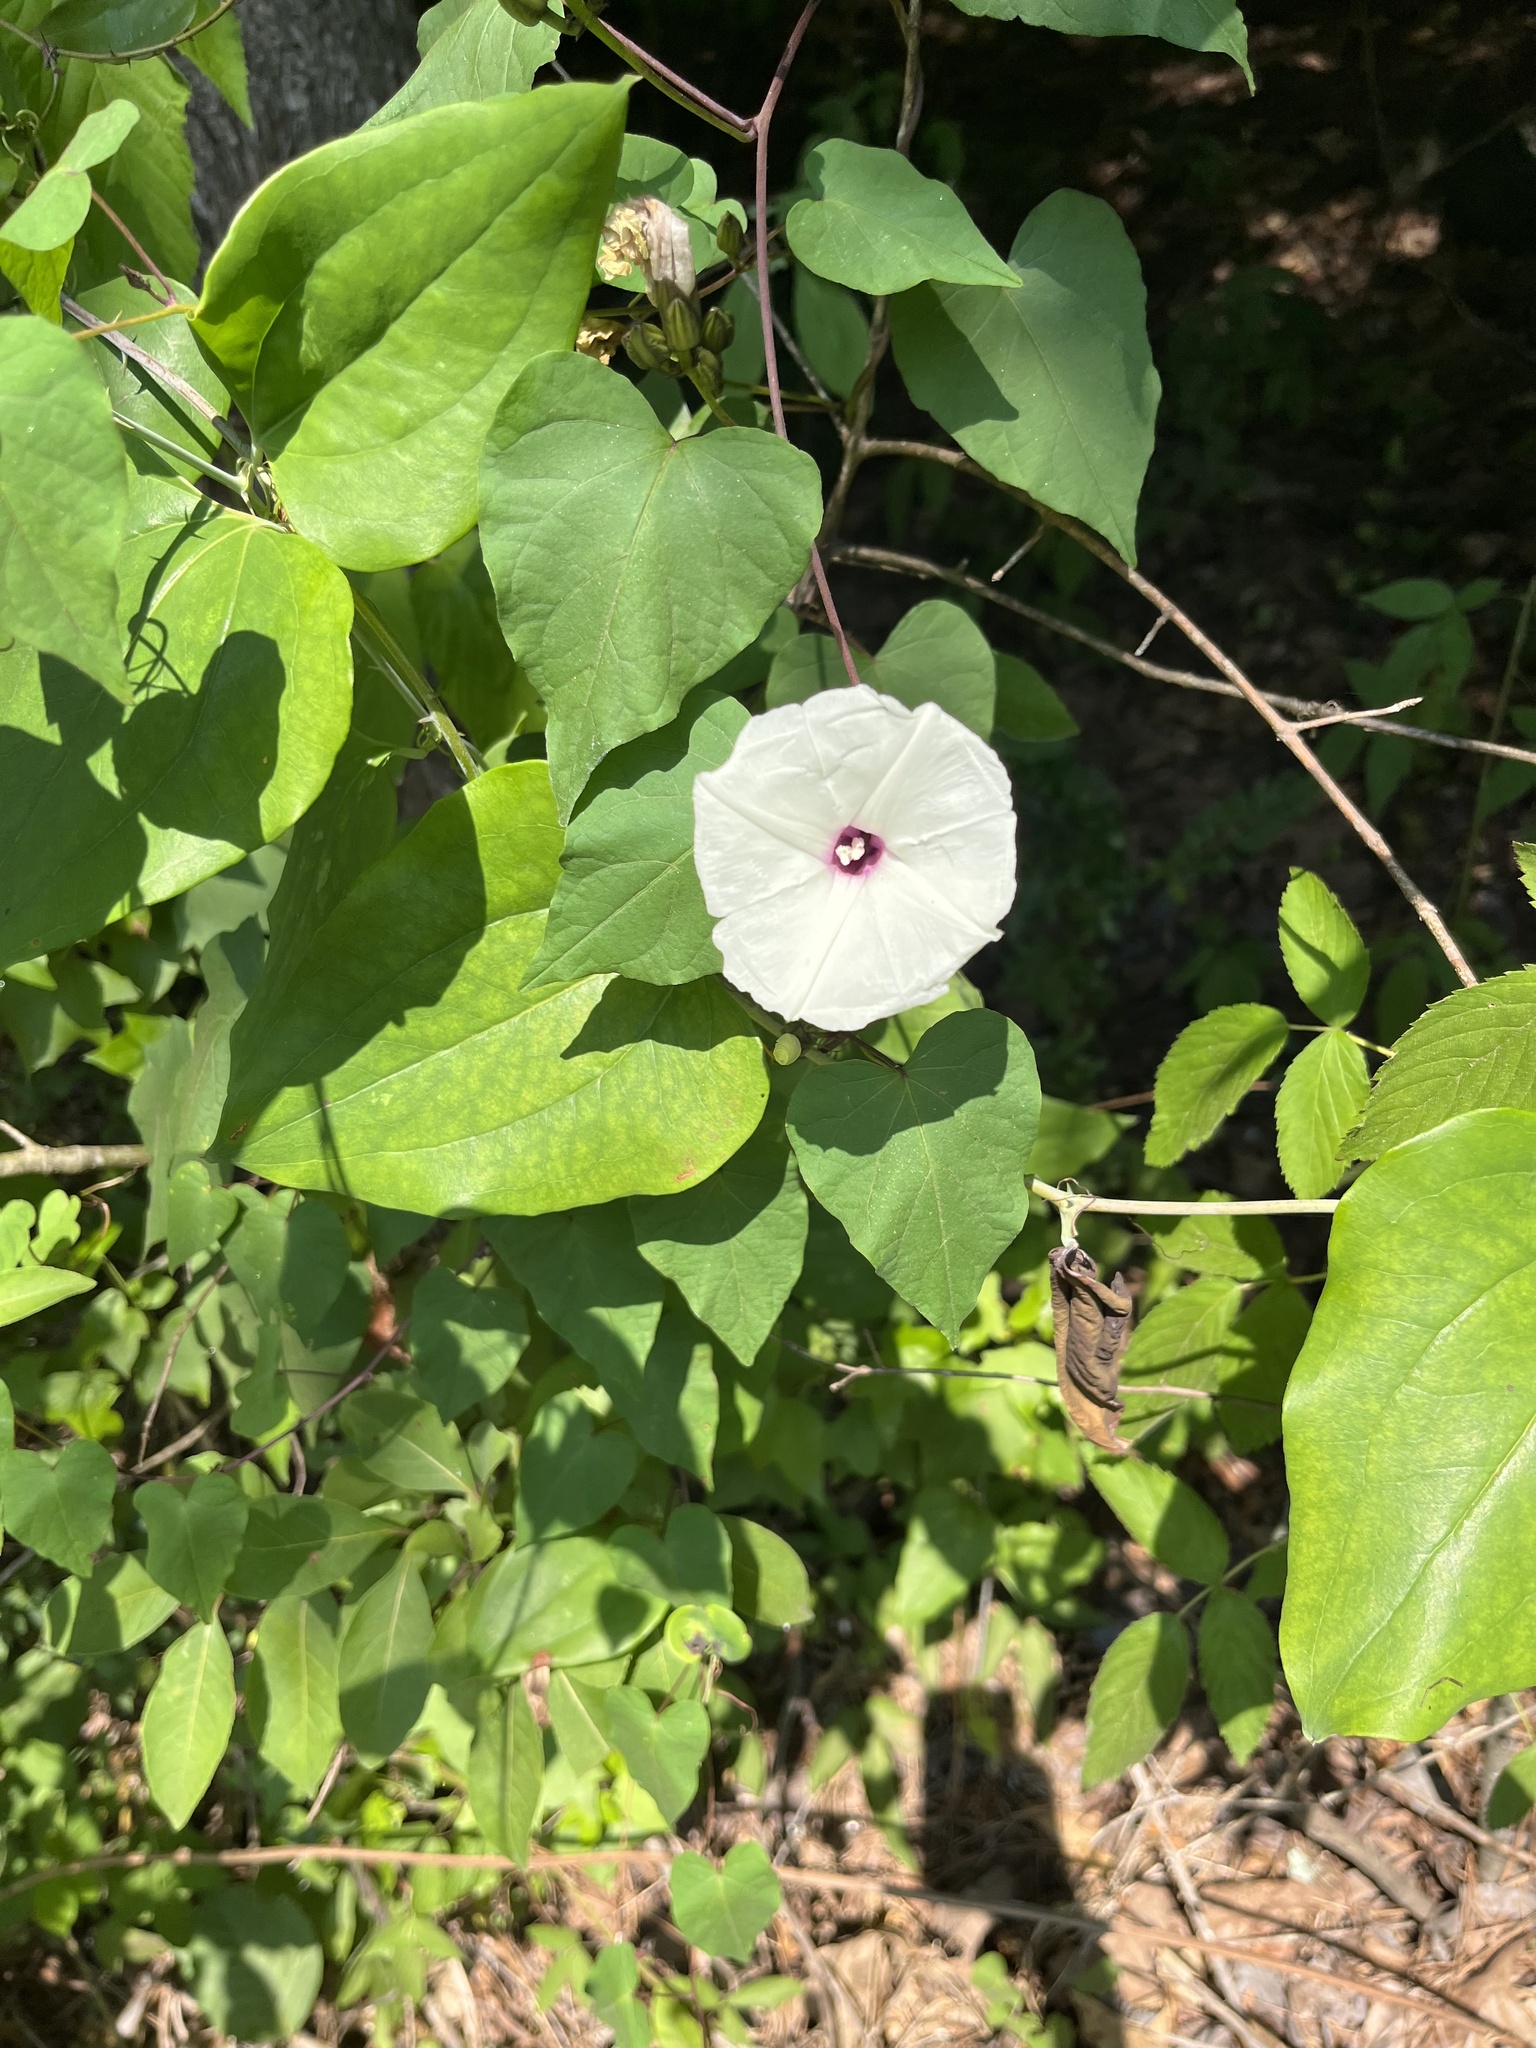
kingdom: Plantae
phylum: Tracheophyta
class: Magnoliopsida
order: Solanales
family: Convolvulaceae
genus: Ipomoea
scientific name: Ipomoea pandurata
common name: Man-of-the-earth
